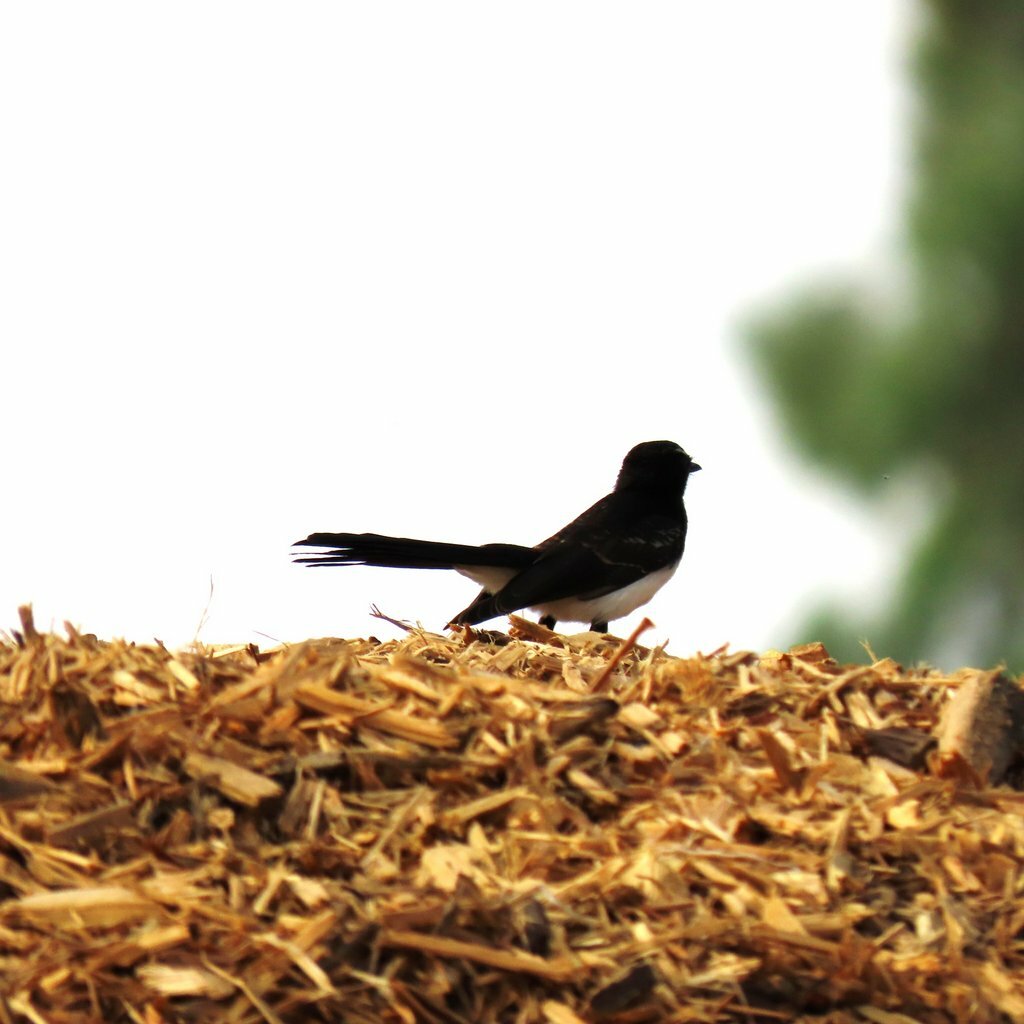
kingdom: Animalia
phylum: Chordata
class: Aves
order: Passeriformes
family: Rhipiduridae
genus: Rhipidura
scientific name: Rhipidura leucophrys
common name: Willie wagtail
